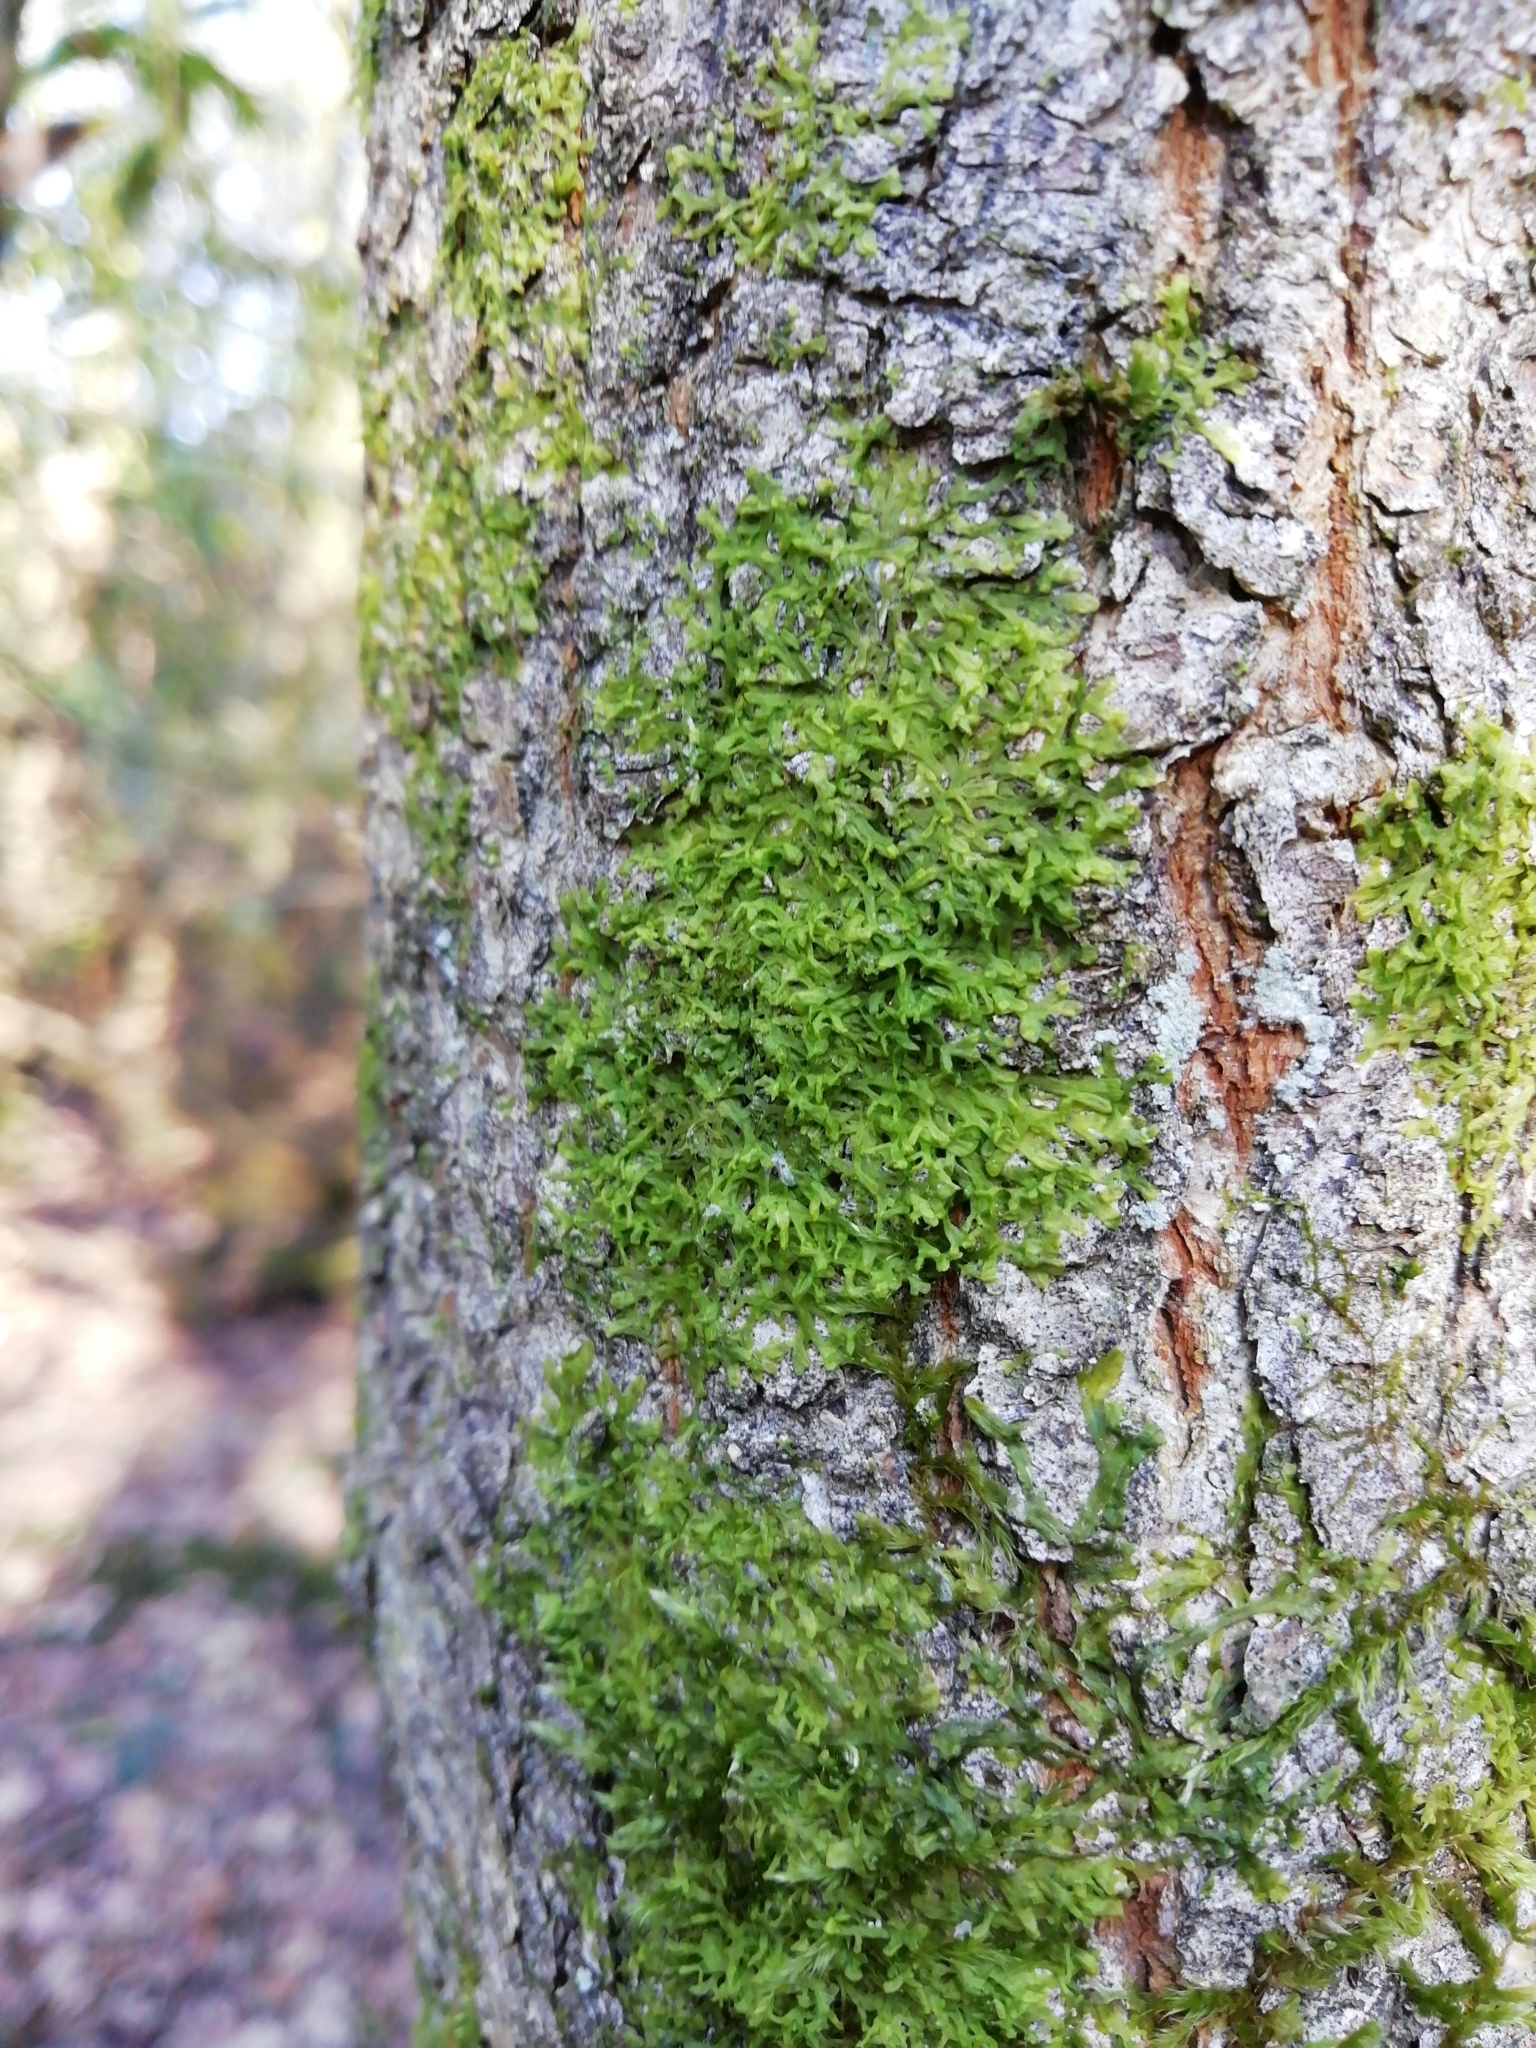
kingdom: Plantae
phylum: Marchantiophyta
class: Jungermanniopsida
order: Metzgeriales
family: Metzgeriaceae
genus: Metzgeria
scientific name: Metzgeria furcata
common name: Forked veilwort
